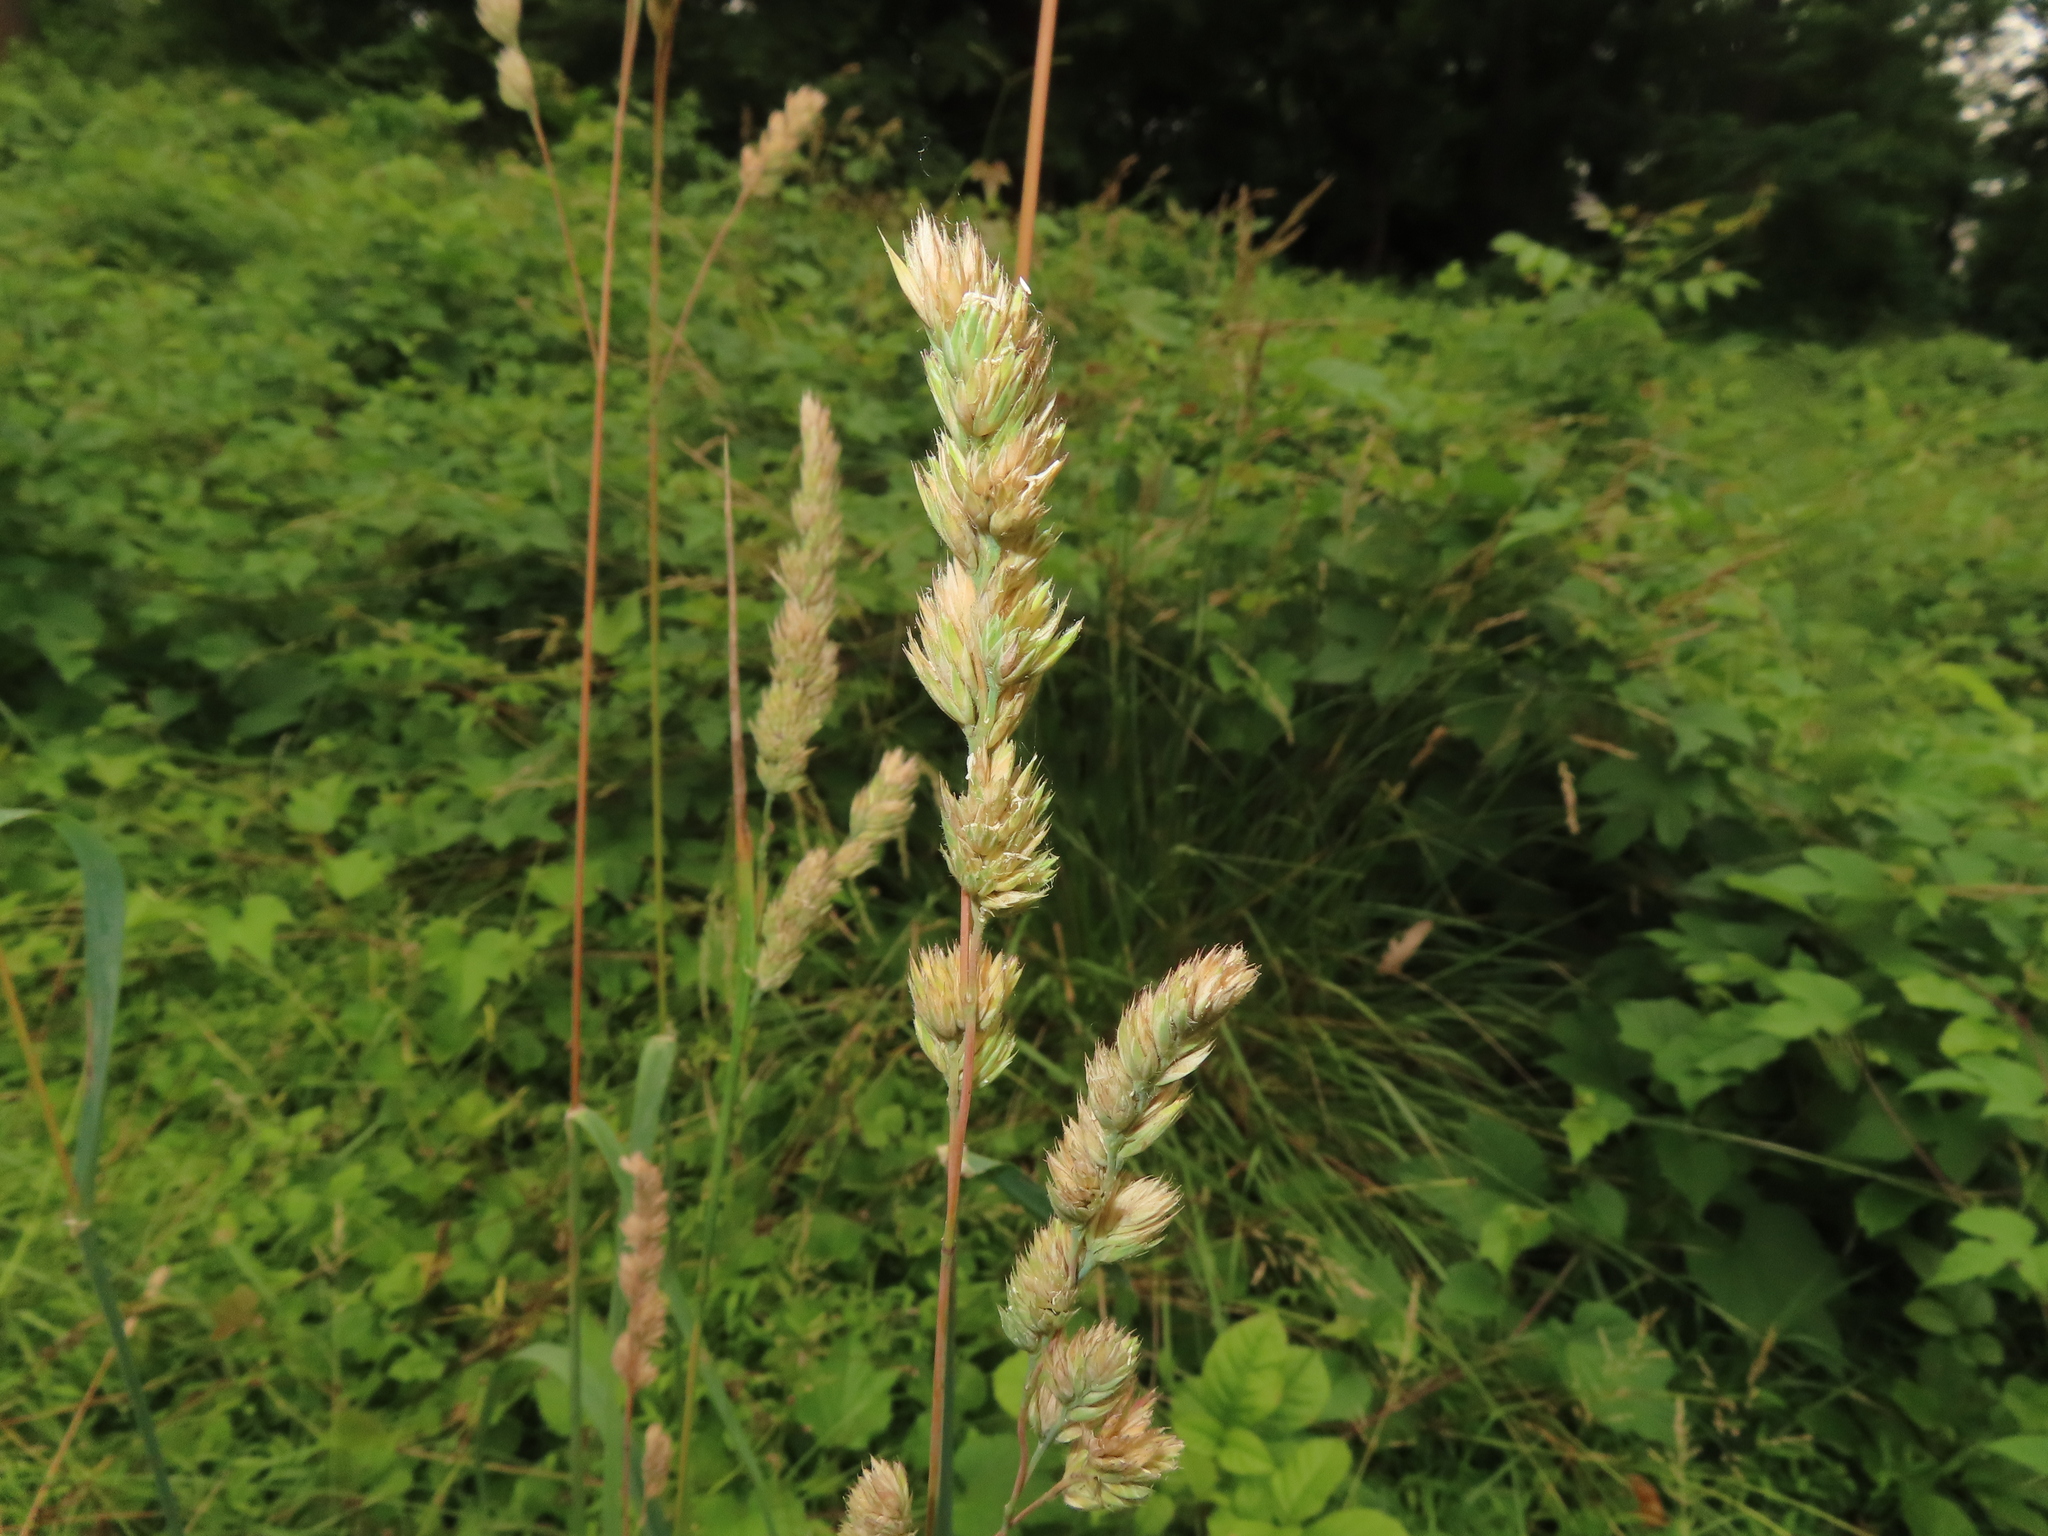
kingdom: Plantae
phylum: Tracheophyta
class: Liliopsida
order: Poales
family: Poaceae
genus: Dactylis
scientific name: Dactylis glomerata
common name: Orchardgrass
